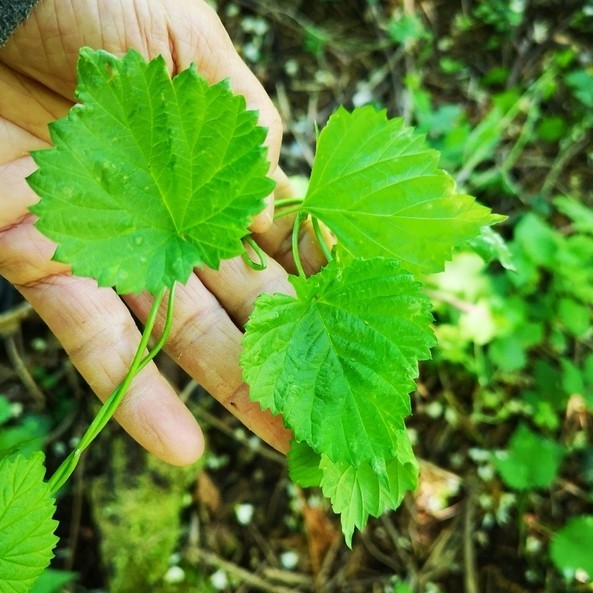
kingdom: Plantae
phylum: Tracheophyta
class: Magnoliopsida
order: Rosales
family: Cannabaceae
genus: Humulus
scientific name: Humulus lupulus
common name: Hop
